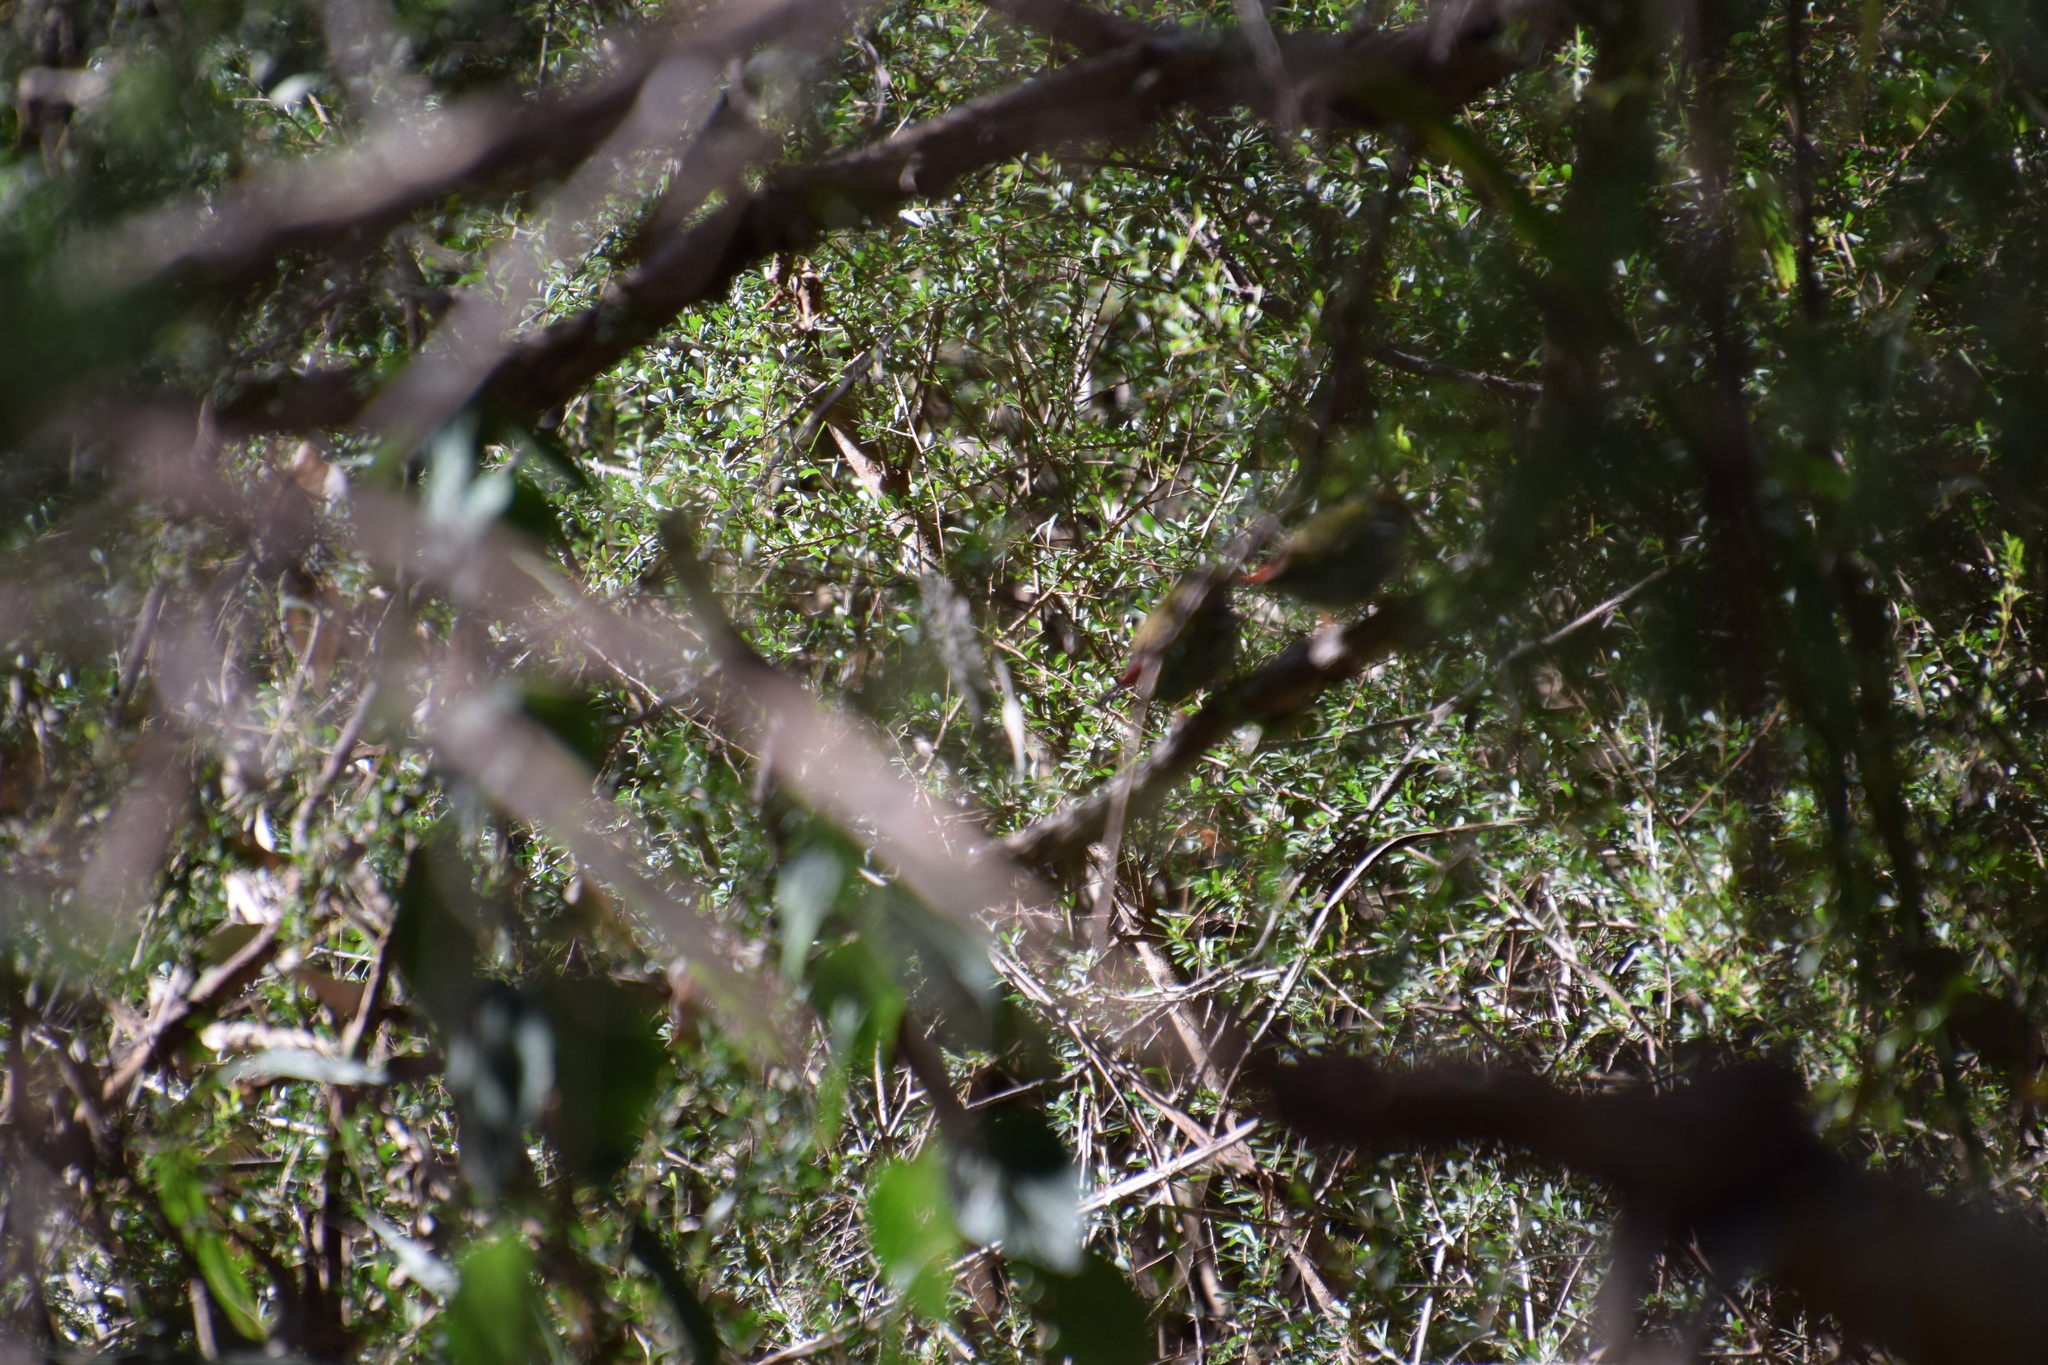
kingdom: Animalia
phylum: Chordata
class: Aves
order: Passeriformes
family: Estrildidae
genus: Neochmia
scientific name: Neochmia temporalis
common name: Red-browed finch
